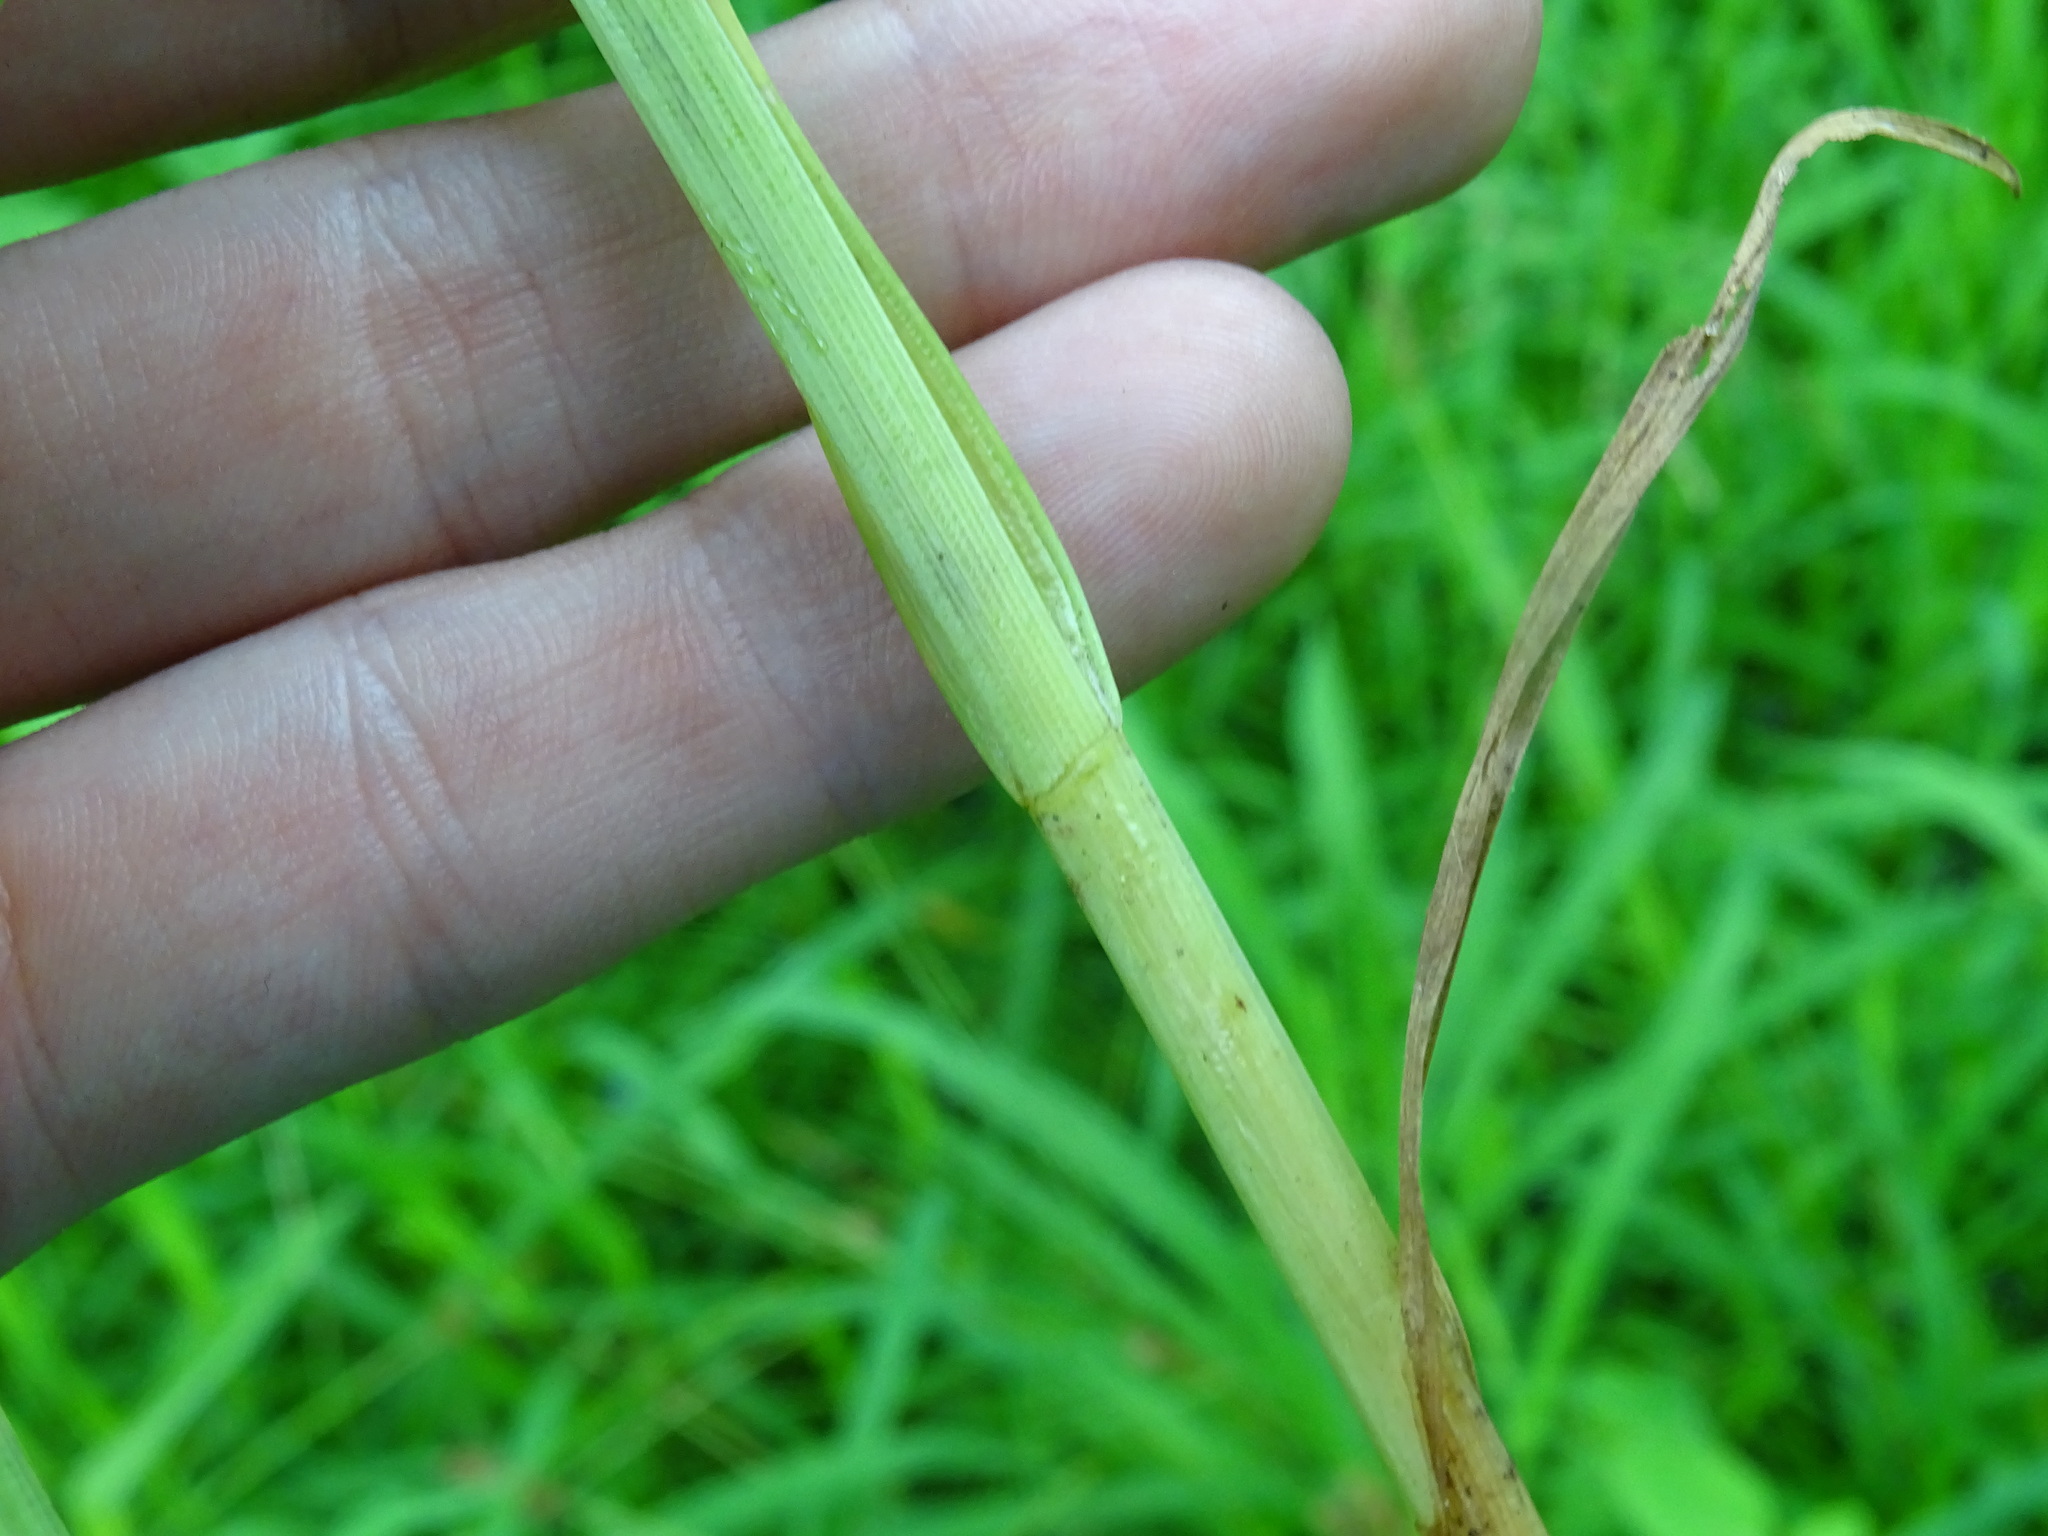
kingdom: Plantae
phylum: Tracheophyta
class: Liliopsida
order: Poales
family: Cyperaceae
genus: Carex
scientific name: Carex laevivaginata
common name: Smooth-sheathed fox sedge
